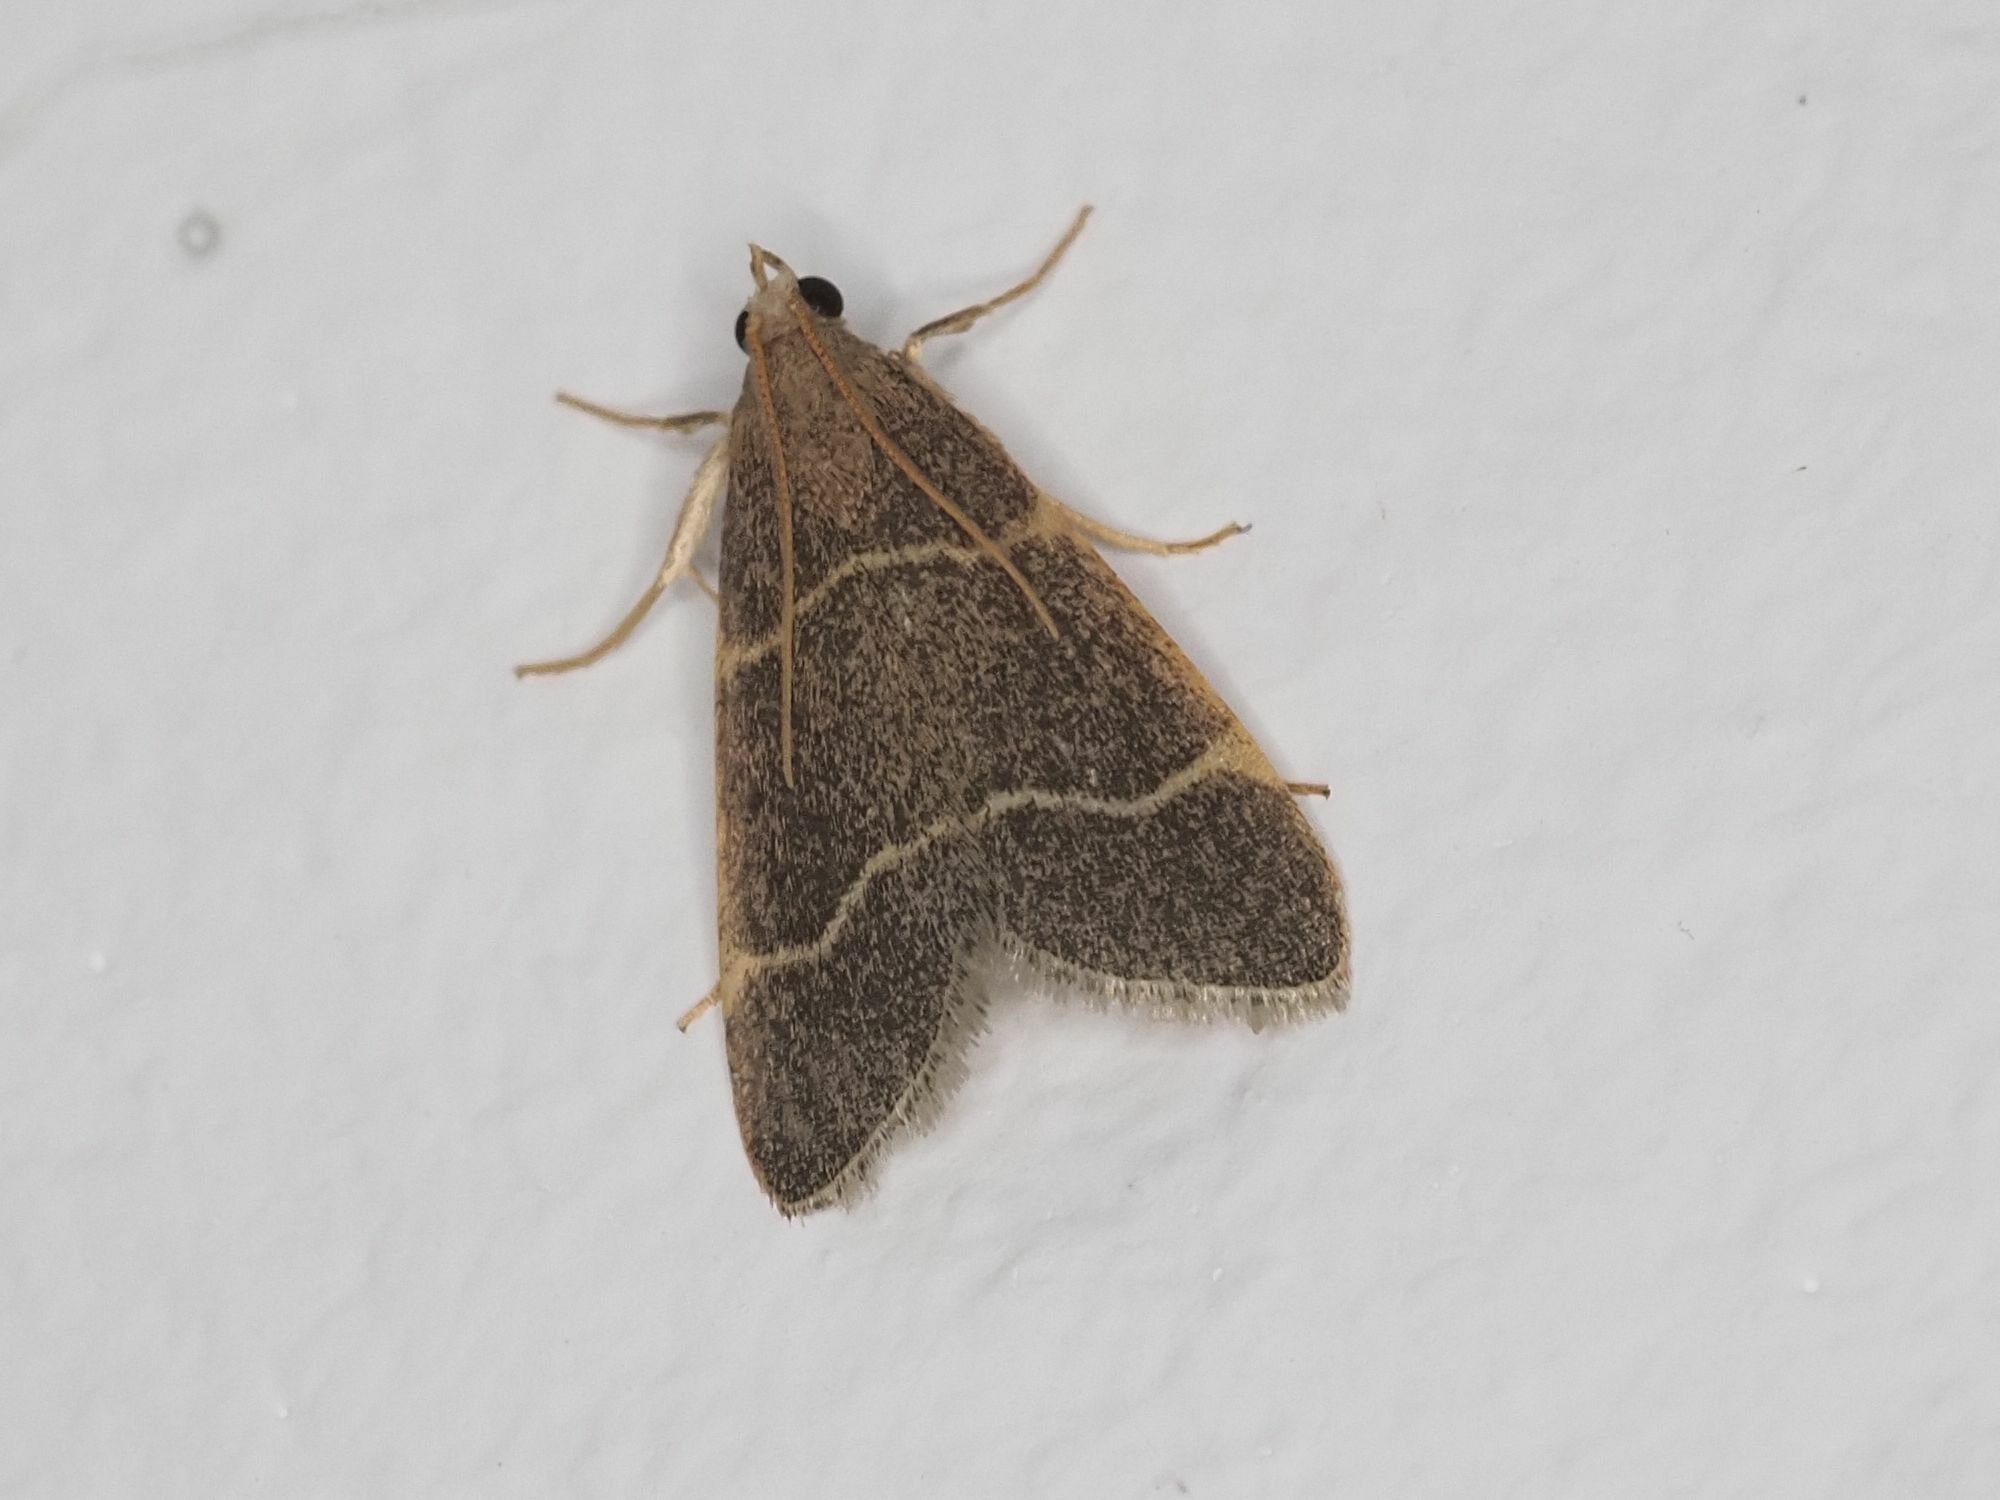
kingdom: Animalia
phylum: Arthropoda
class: Insecta
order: Lepidoptera
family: Pyralidae
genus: Hypsopygia
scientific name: Hypsopygia glaucinalis
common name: Double-striped tabby
